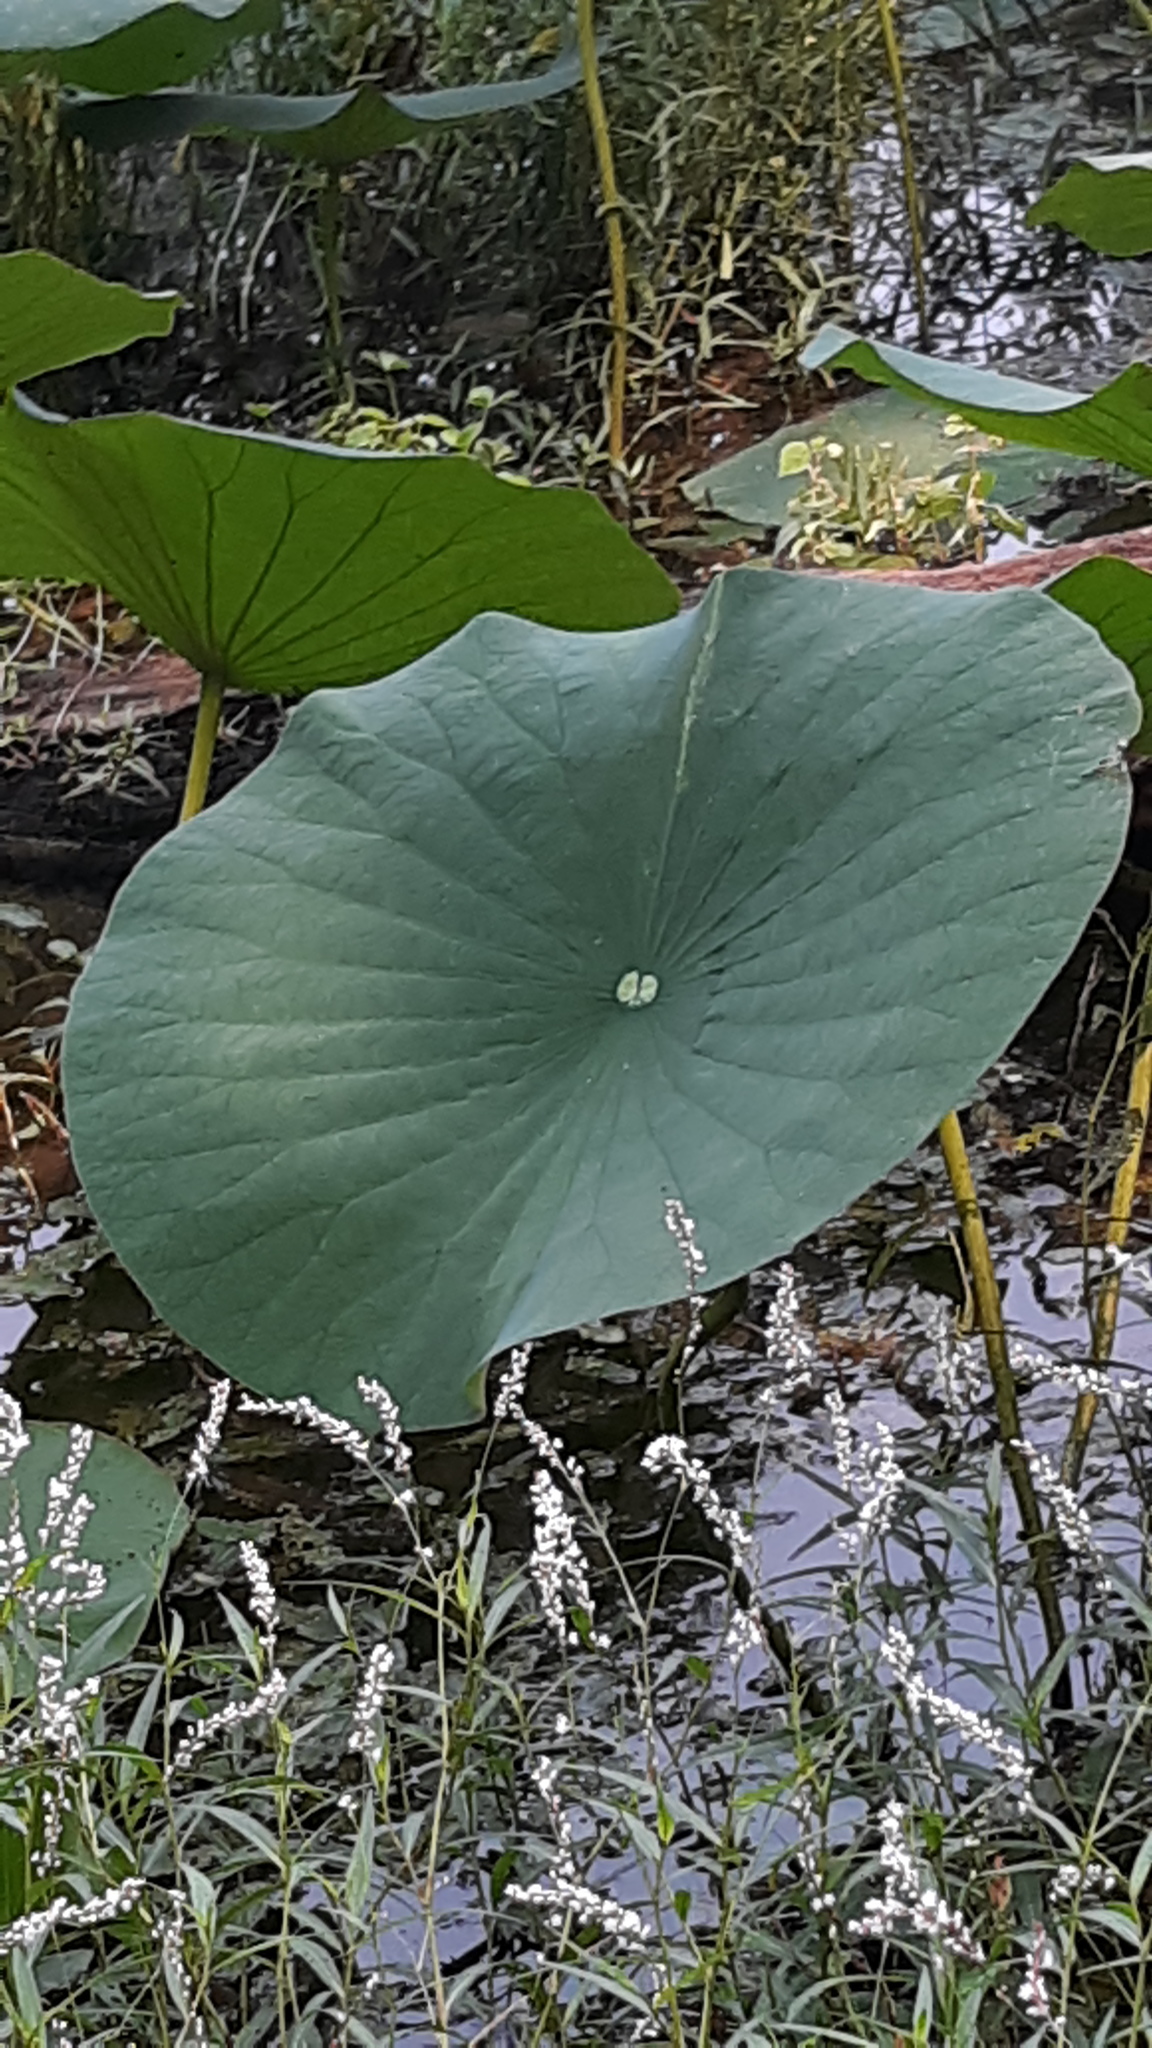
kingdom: Plantae
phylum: Tracheophyta
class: Magnoliopsida
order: Proteales
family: Nelumbonaceae
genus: Nelumbo
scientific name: Nelumbo lutea
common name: American lotus
